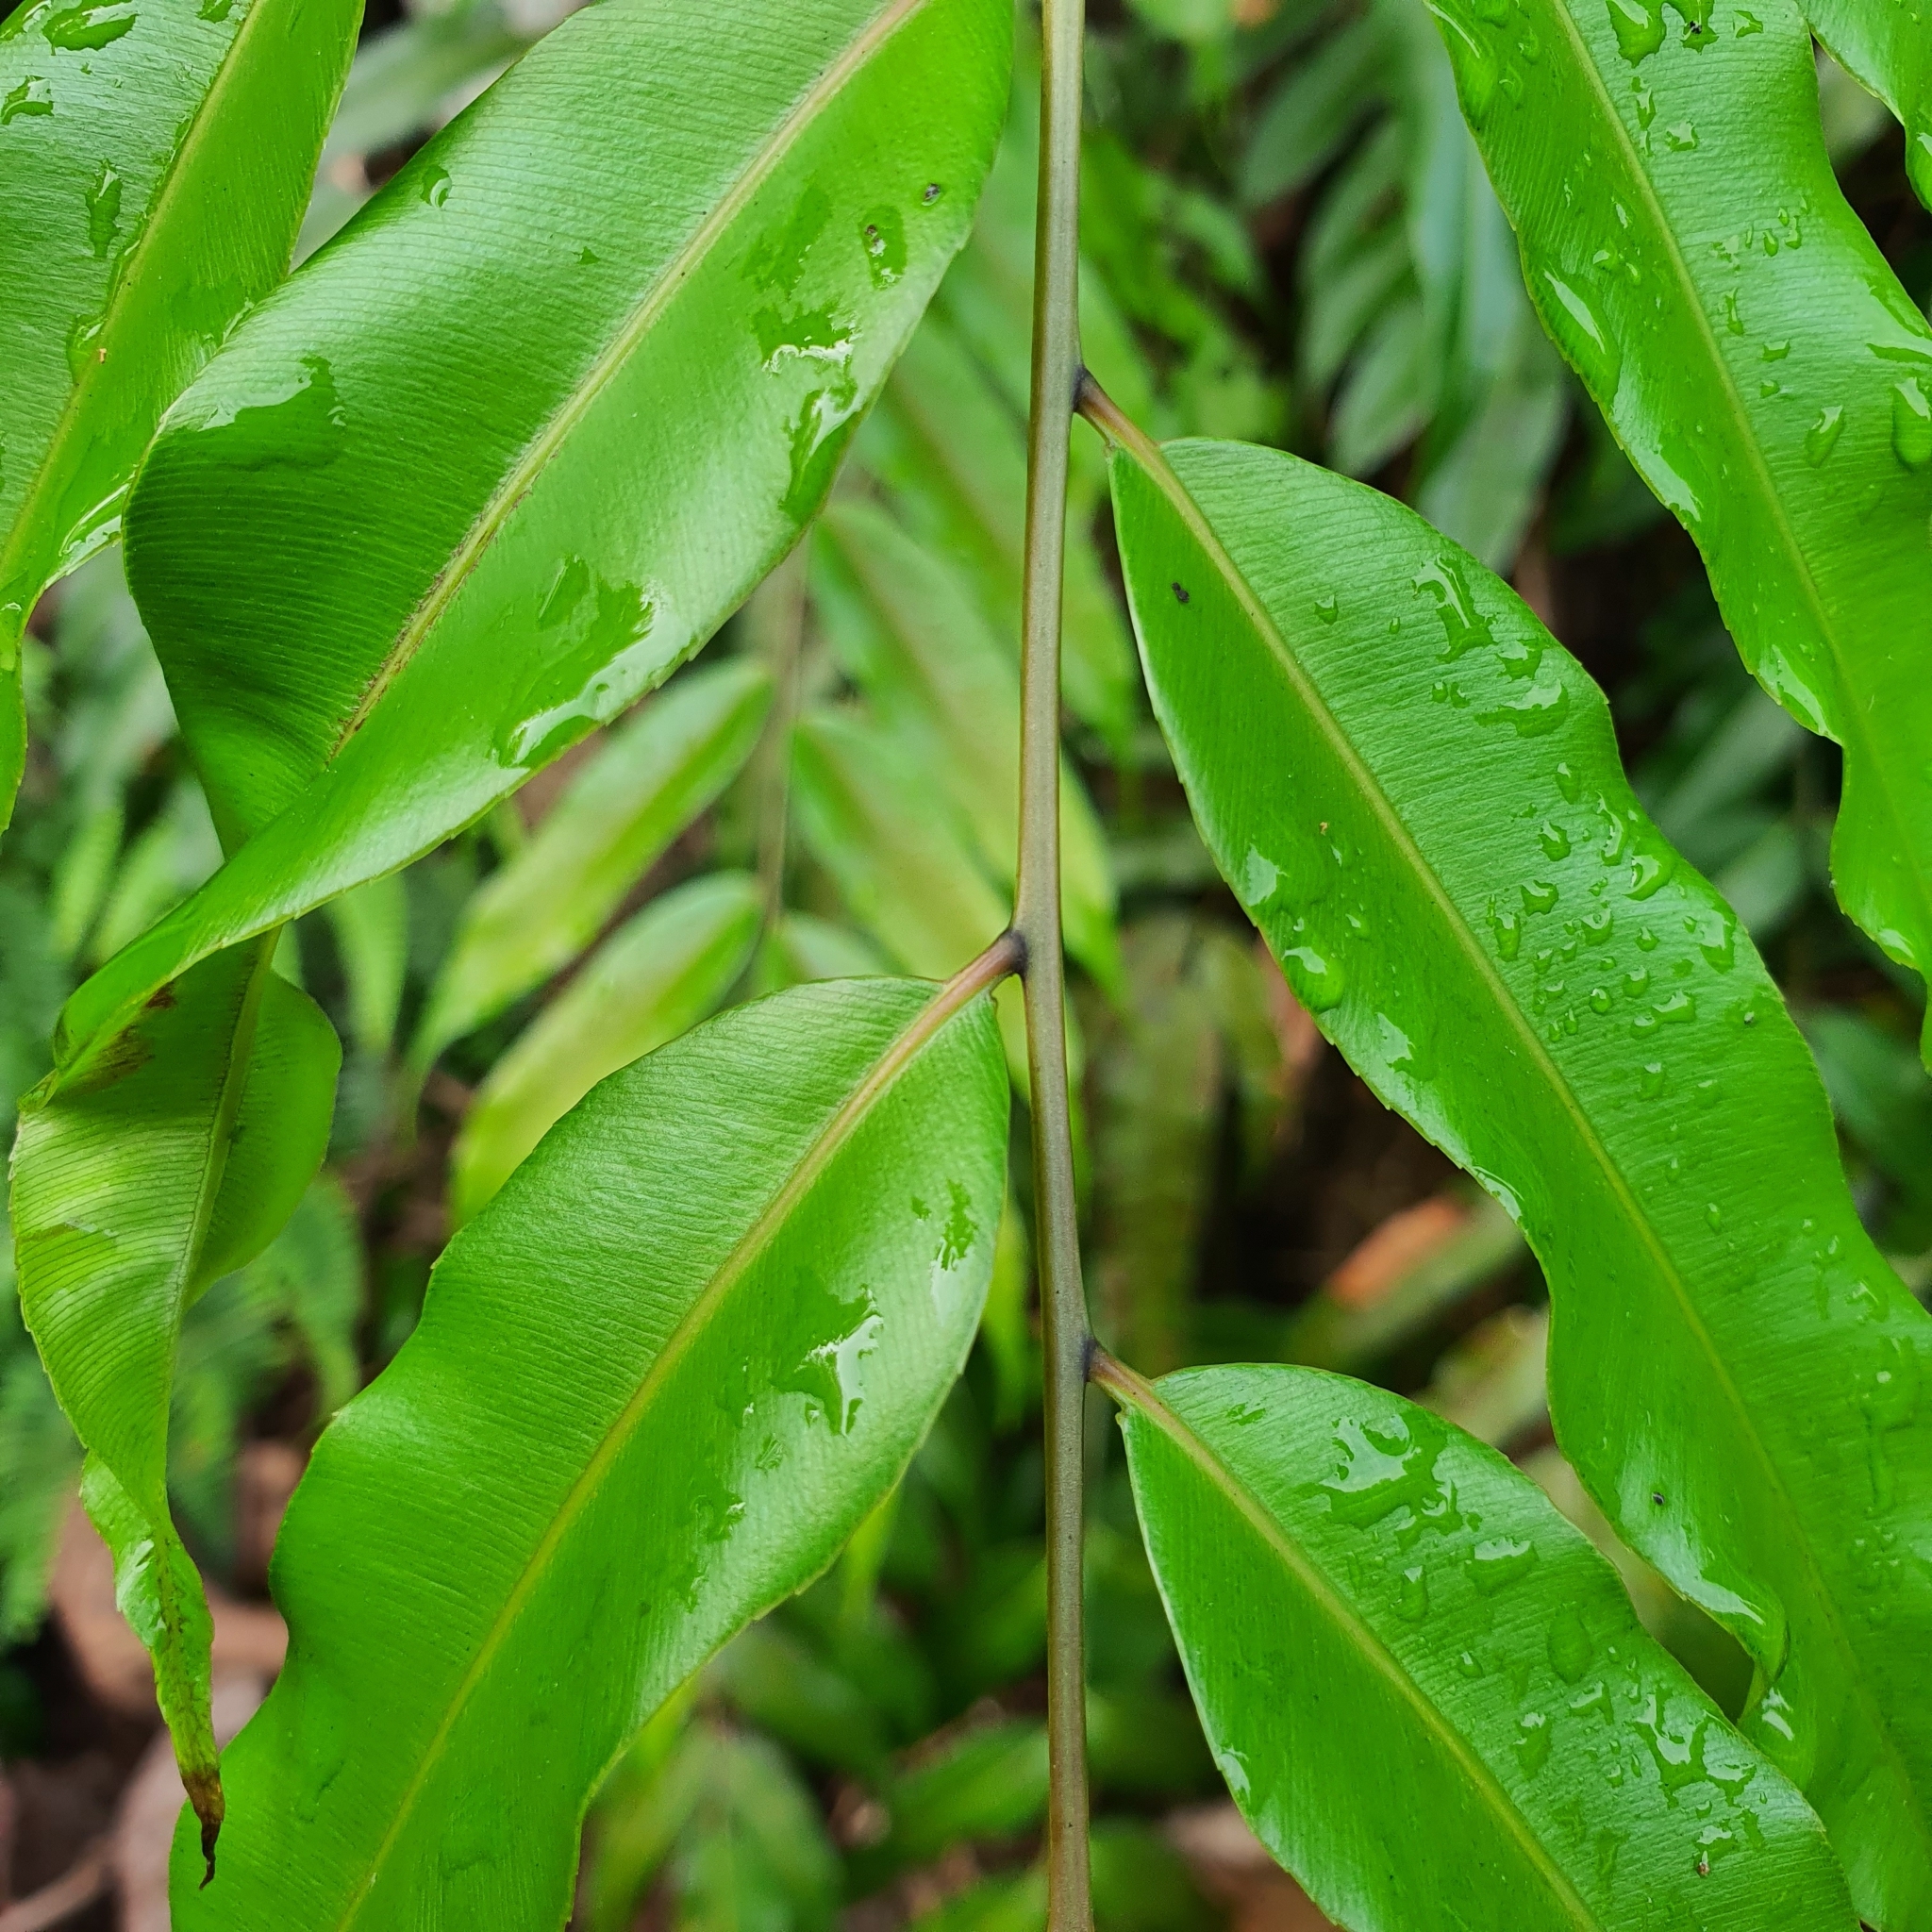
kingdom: Plantae
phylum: Tracheophyta
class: Polypodiopsida
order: Polypodiales
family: Blechnaceae
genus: Stenochlaena
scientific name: Stenochlaena palustris
